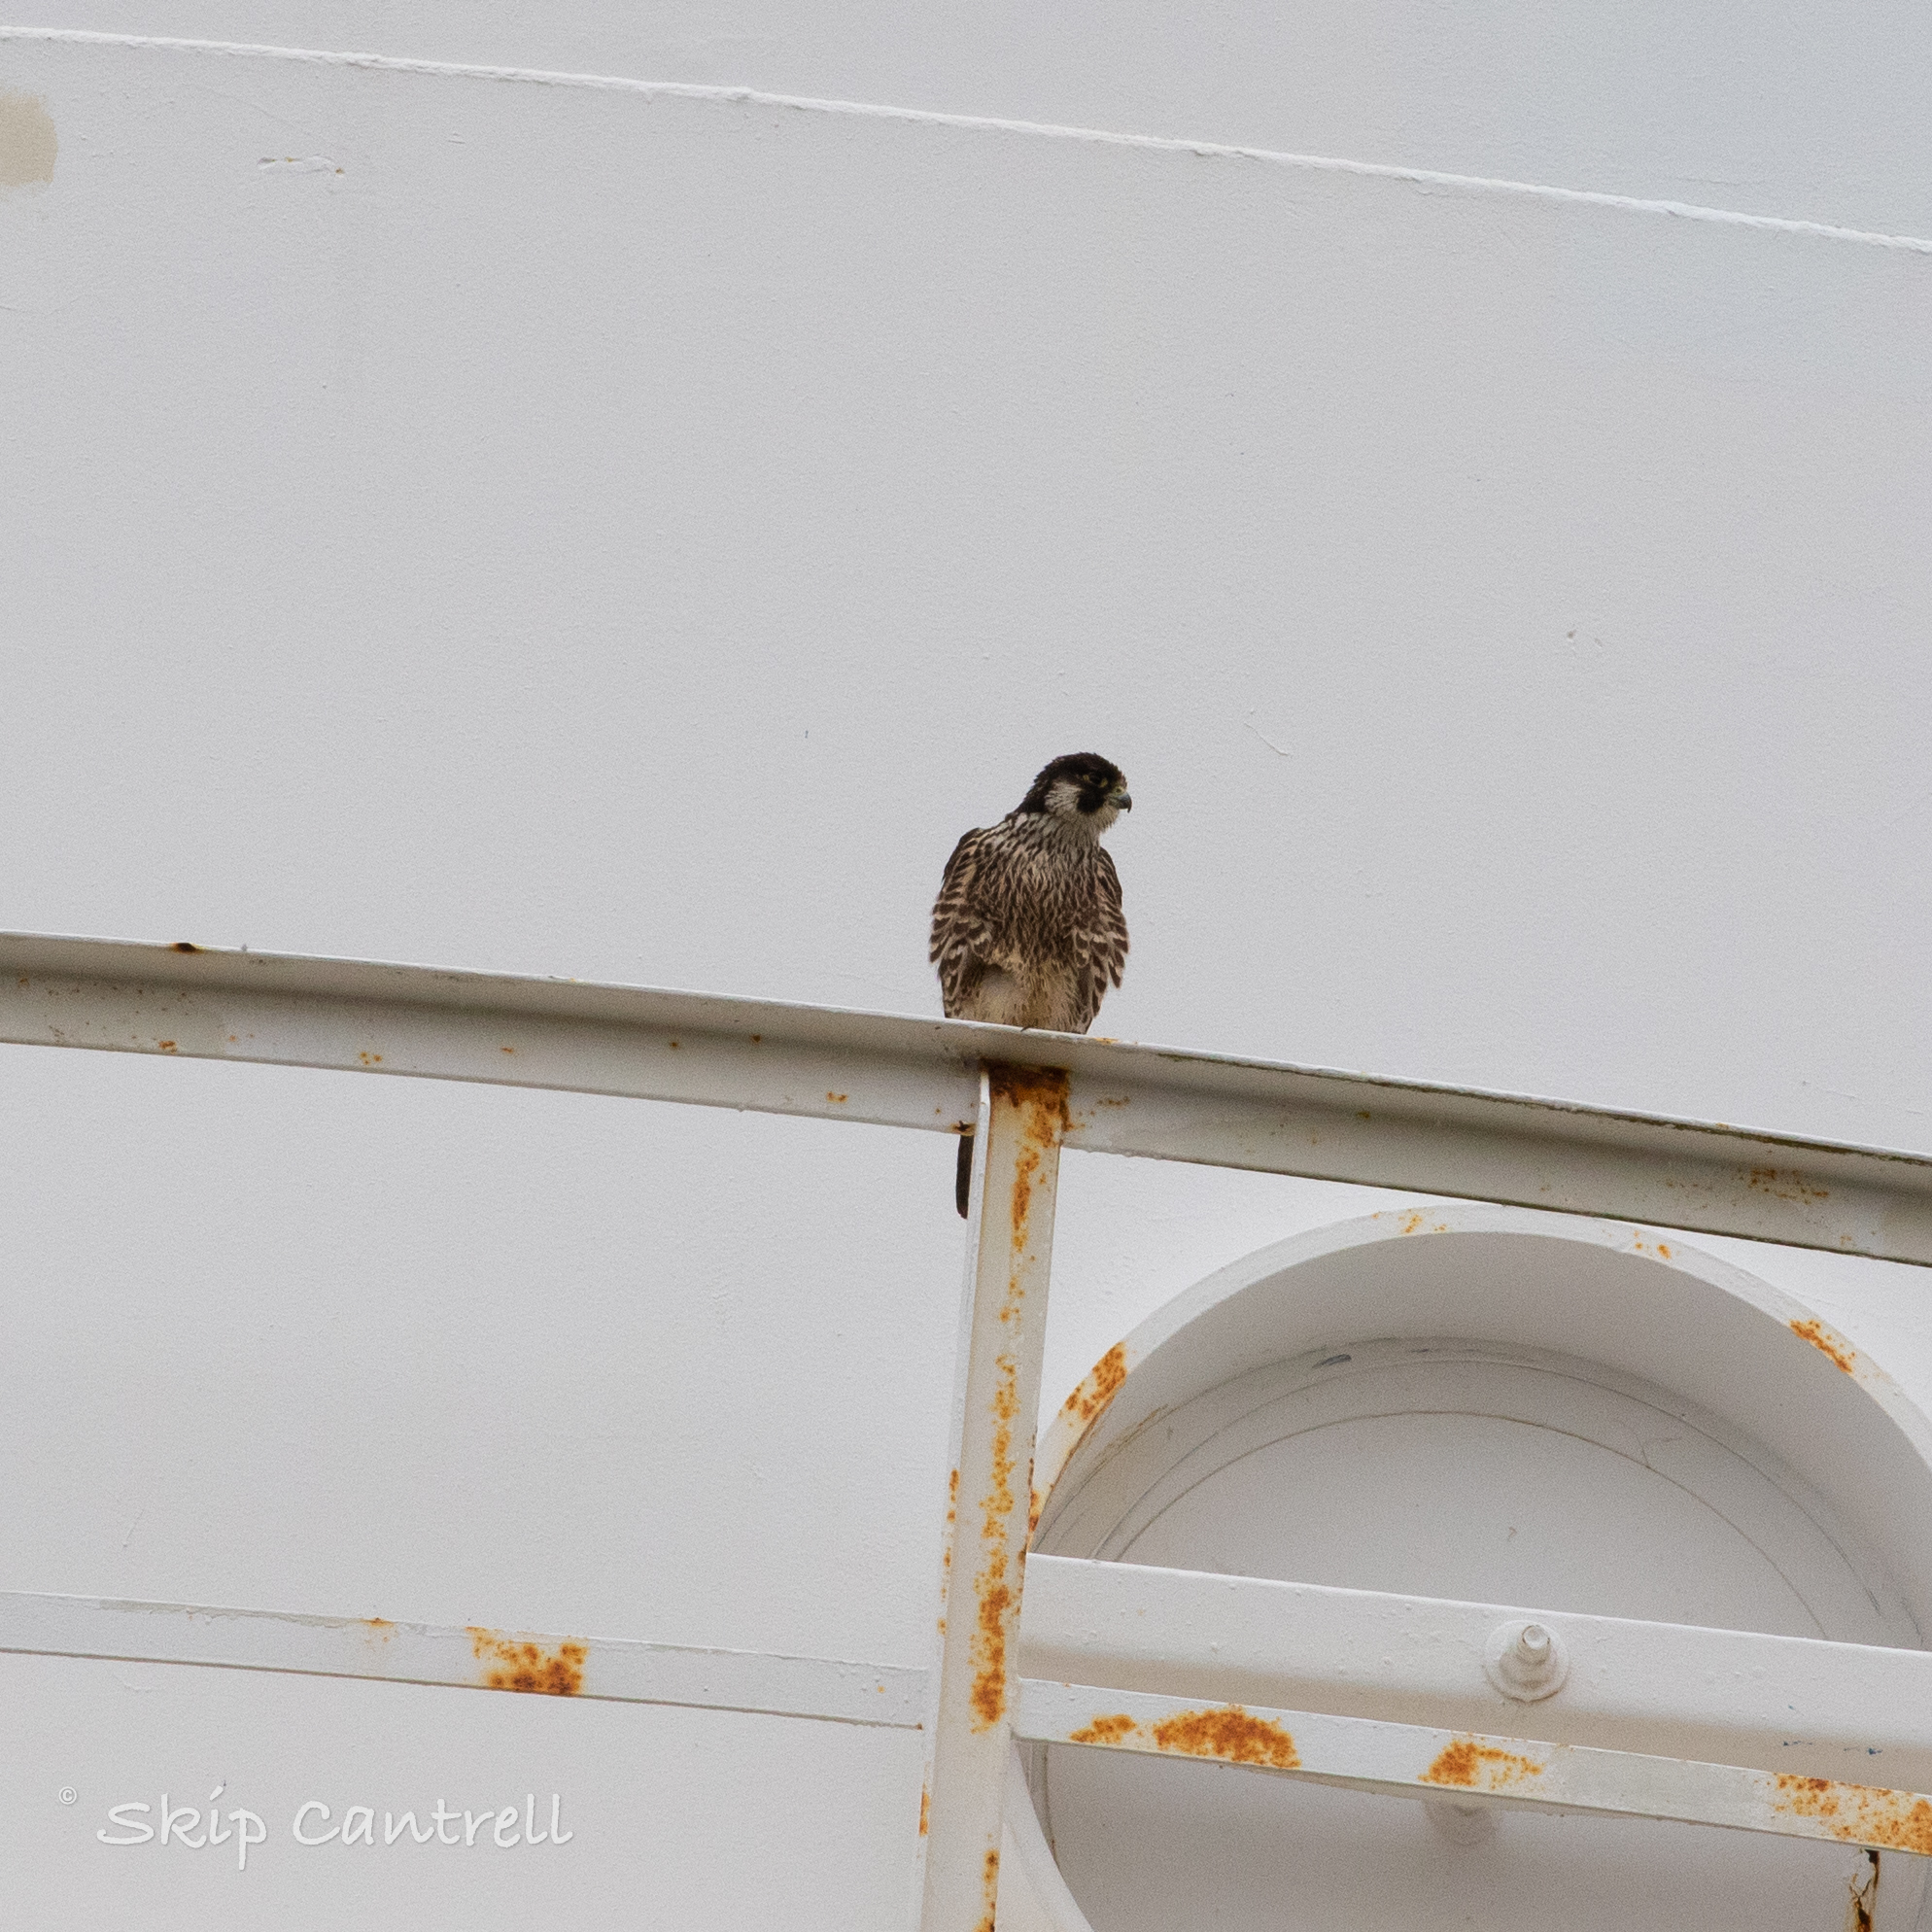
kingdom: Animalia
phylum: Chordata
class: Aves
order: Falconiformes
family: Falconidae
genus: Falco
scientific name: Falco peregrinus
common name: Peregrine falcon
